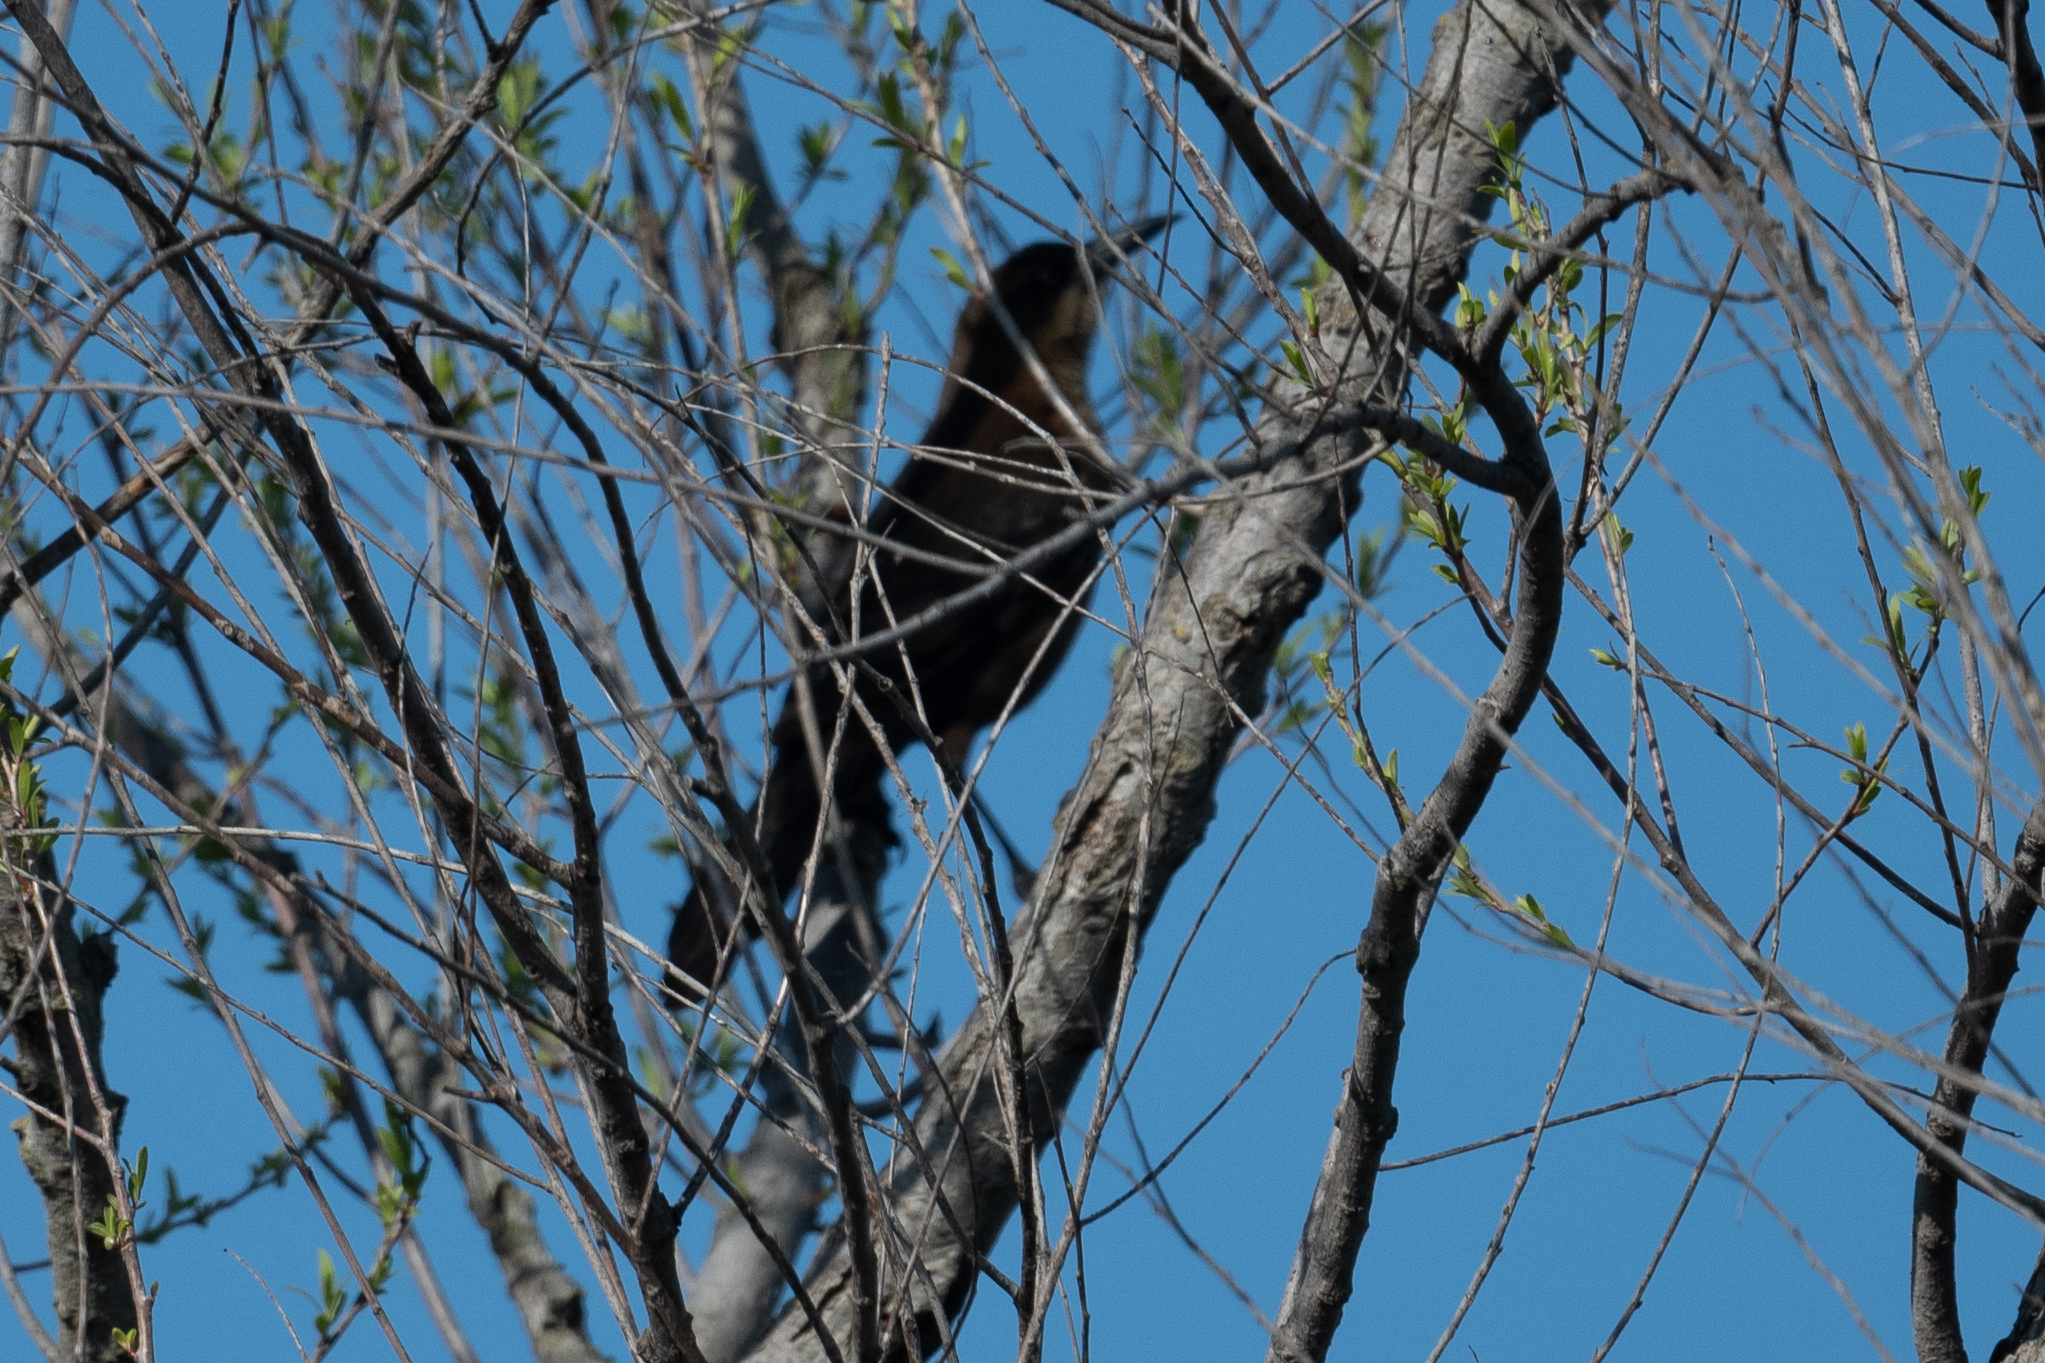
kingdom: Animalia
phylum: Chordata
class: Aves
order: Passeriformes
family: Icteridae
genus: Quiscalus
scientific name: Quiscalus mexicanus
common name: Great-tailed grackle
